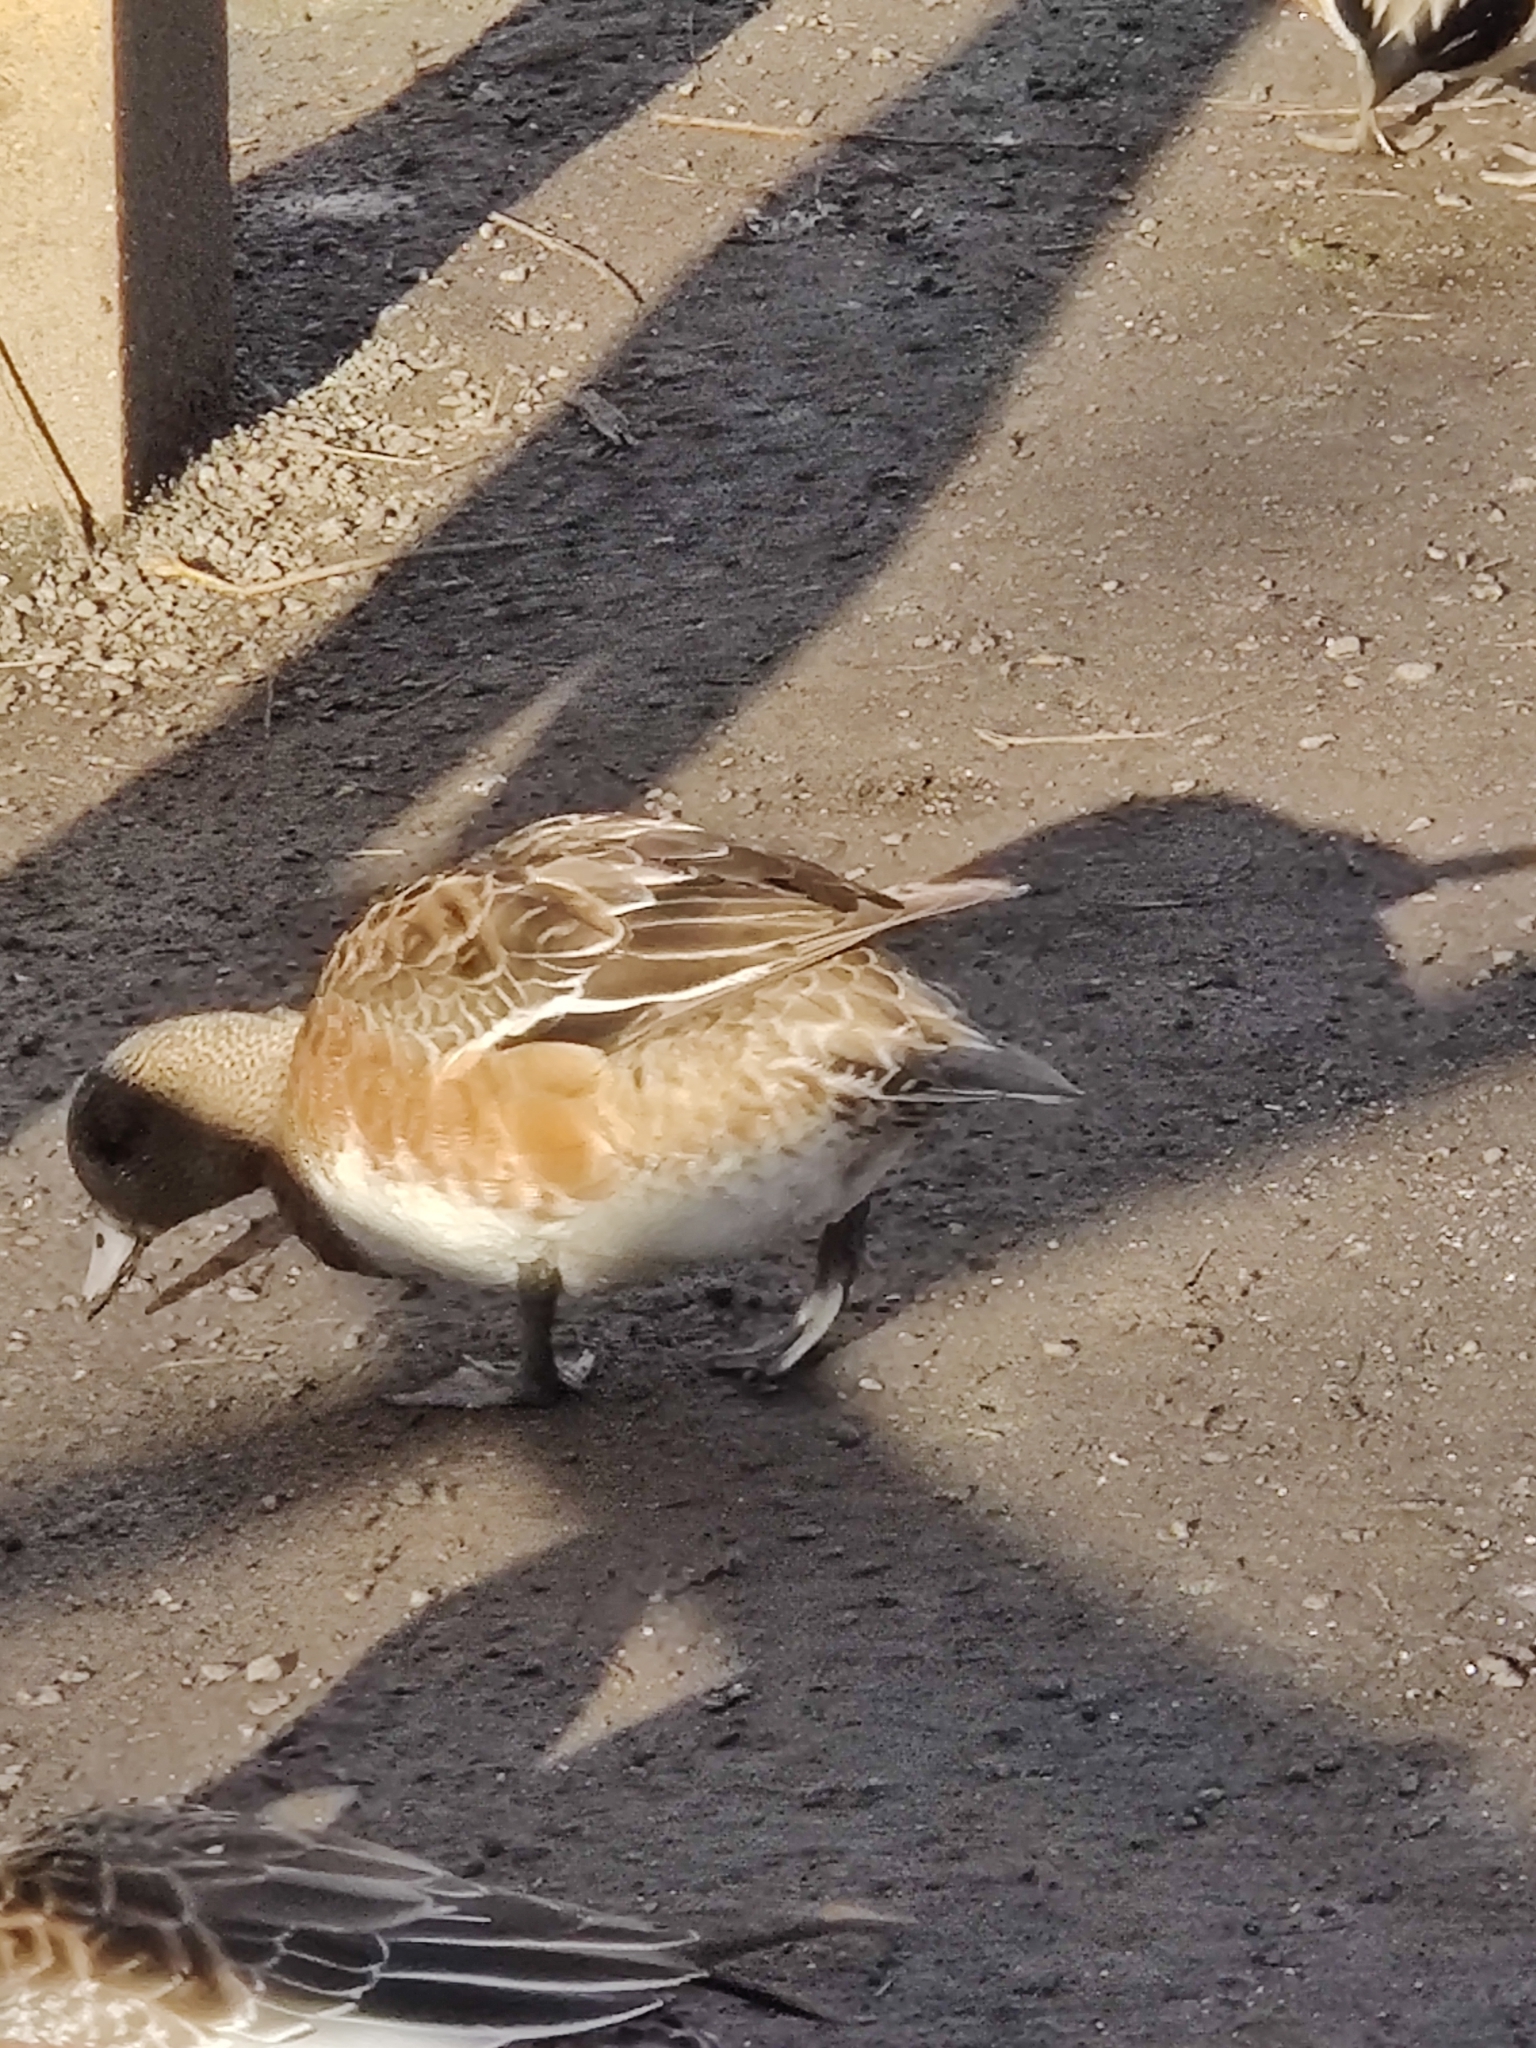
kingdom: Animalia
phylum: Chordata
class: Aves
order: Anseriformes
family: Anatidae
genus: Mareca
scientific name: Mareca americana
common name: American wigeon
